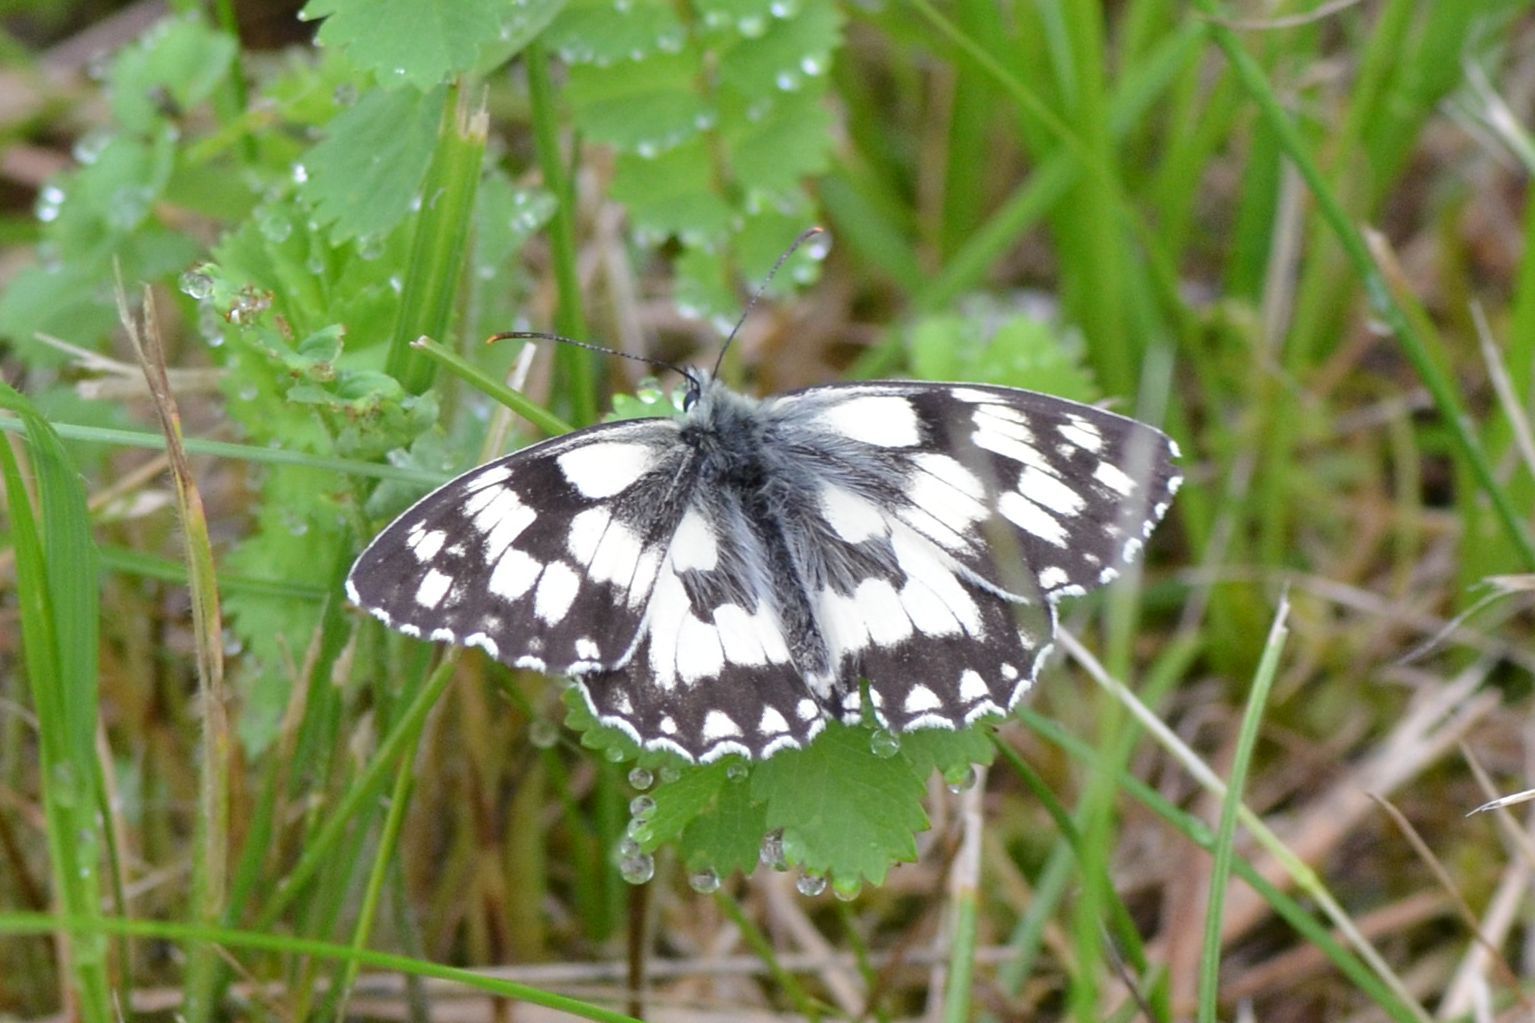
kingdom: Animalia
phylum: Arthropoda
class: Insecta
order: Lepidoptera
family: Nymphalidae
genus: Melanargia
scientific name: Melanargia galathea
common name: Marbled white
